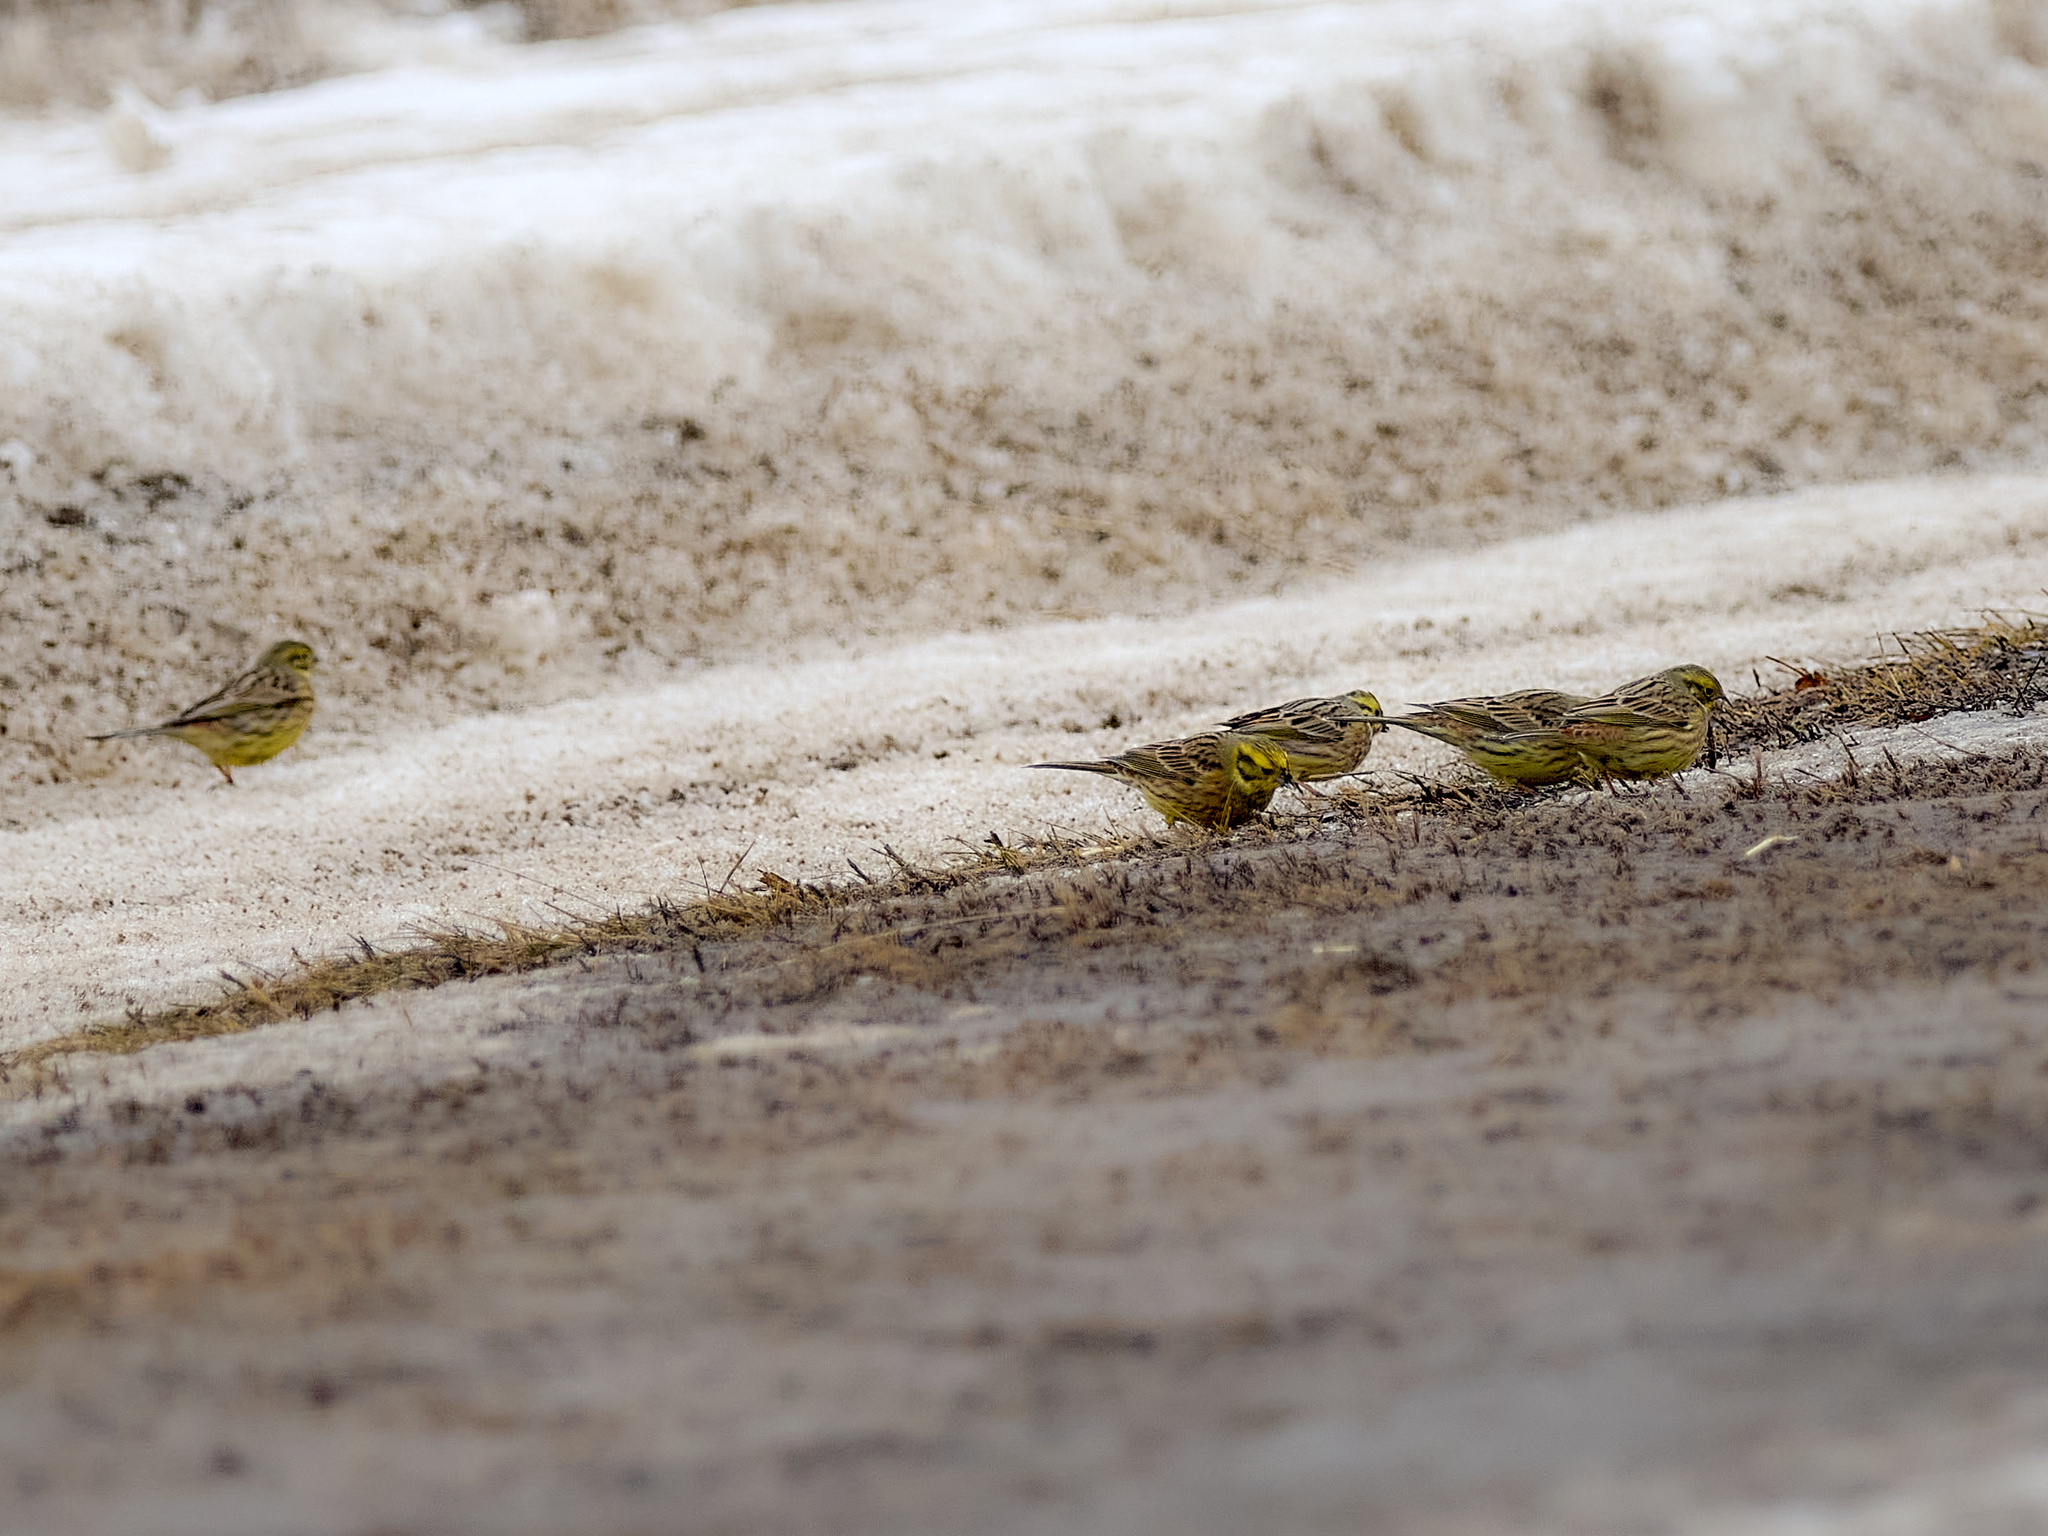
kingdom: Animalia
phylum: Chordata
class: Aves
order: Passeriformes
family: Emberizidae
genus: Emberiza
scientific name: Emberiza citrinella
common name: Yellowhammer
